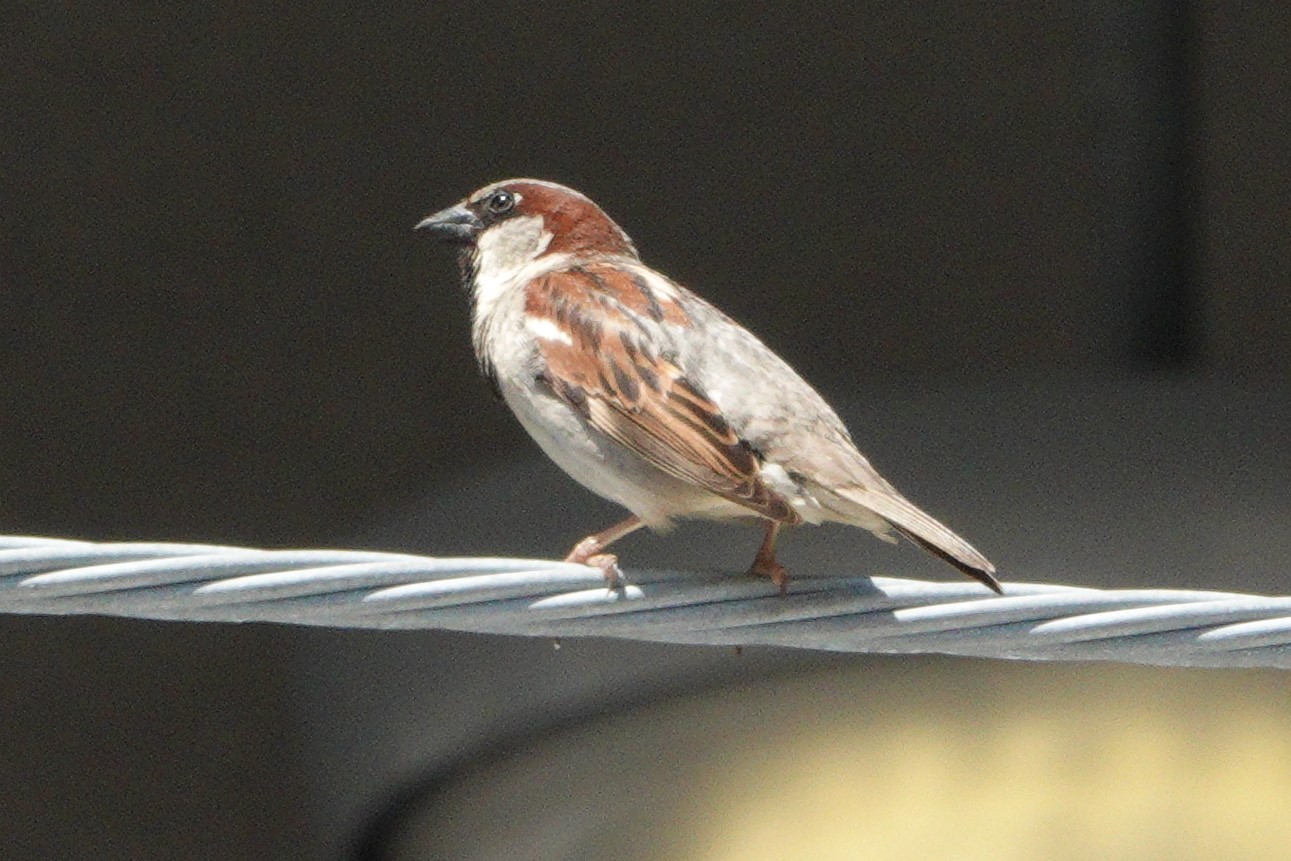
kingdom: Animalia
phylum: Chordata
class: Aves
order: Passeriformes
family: Passeridae
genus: Passer
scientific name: Passer domesticus
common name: House sparrow
